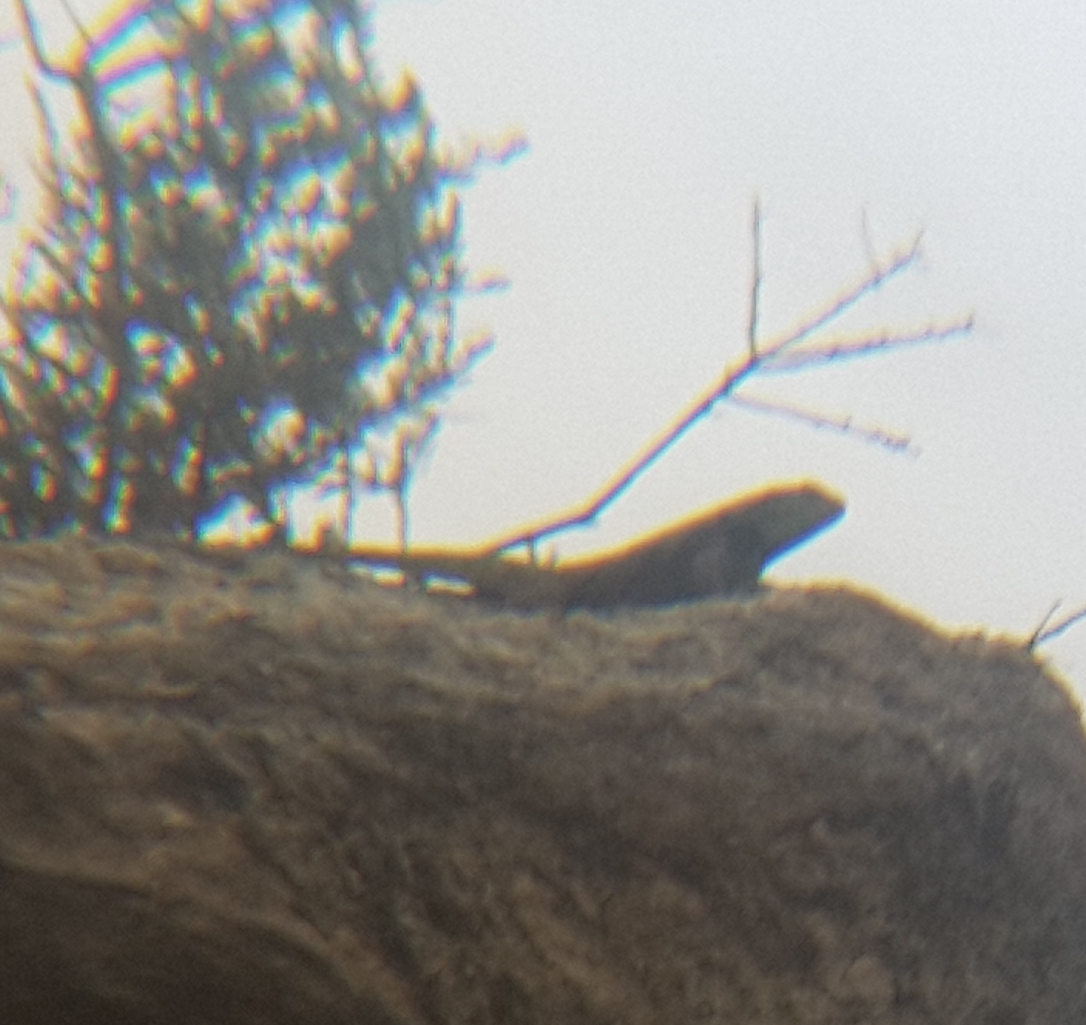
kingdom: Animalia
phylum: Chordata
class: Squamata
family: Phrynosomatidae
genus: Sceloporus
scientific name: Sceloporus magister
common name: Desert spiny lizard
